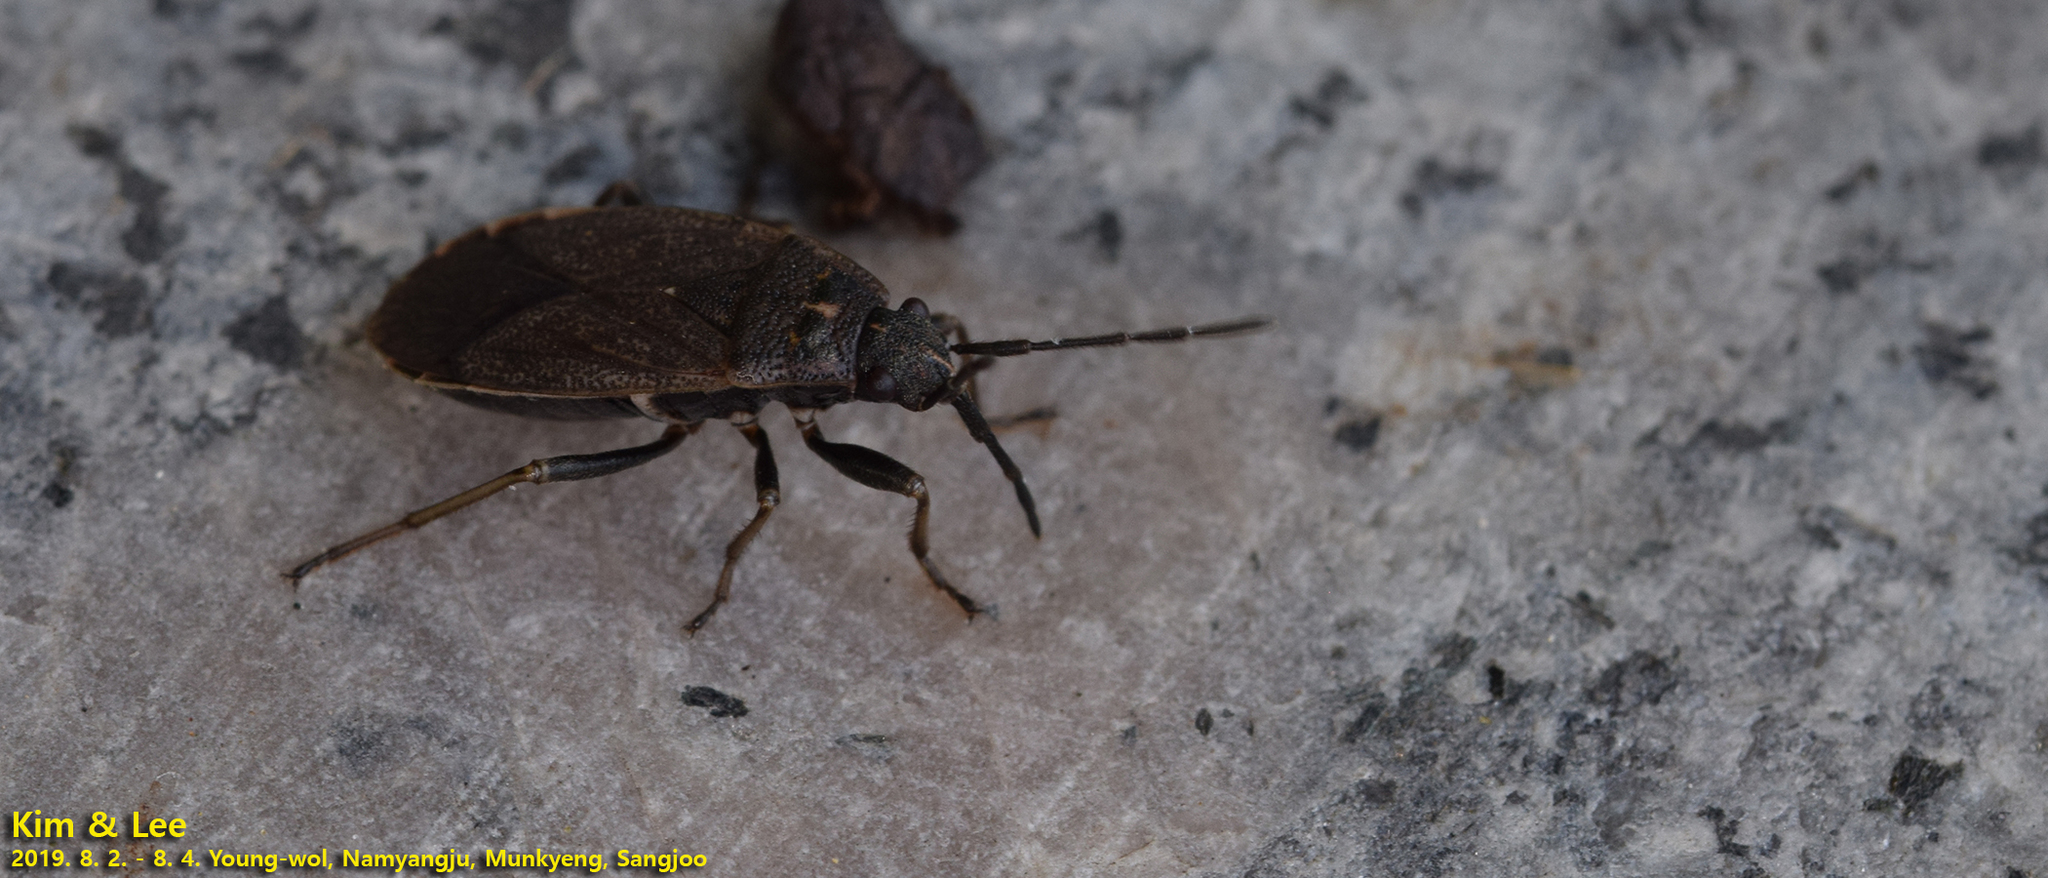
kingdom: Animalia
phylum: Arthropoda
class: Insecta
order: Hemiptera
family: Pyrrhocoridae
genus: Pyrrhocoris
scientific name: Pyrrhocoris sibiricus
